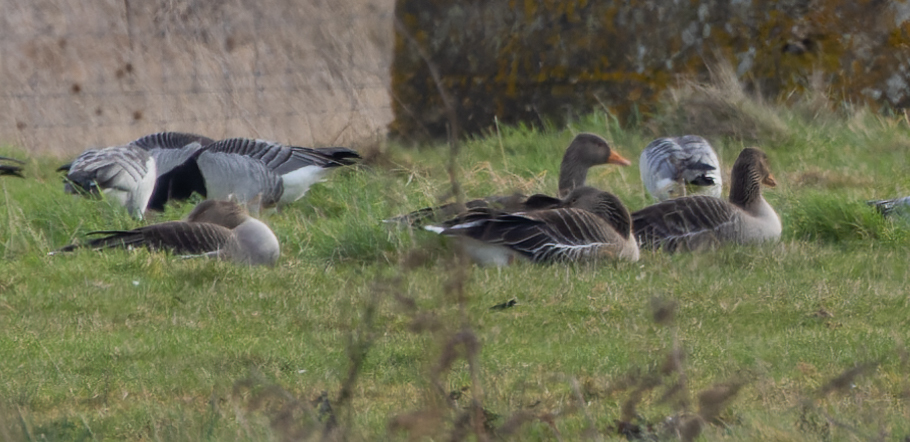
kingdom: Animalia
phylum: Chordata
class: Aves
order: Anseriformes
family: Anatidae
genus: Branta
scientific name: Branta leucopsis
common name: Barnacle goose
